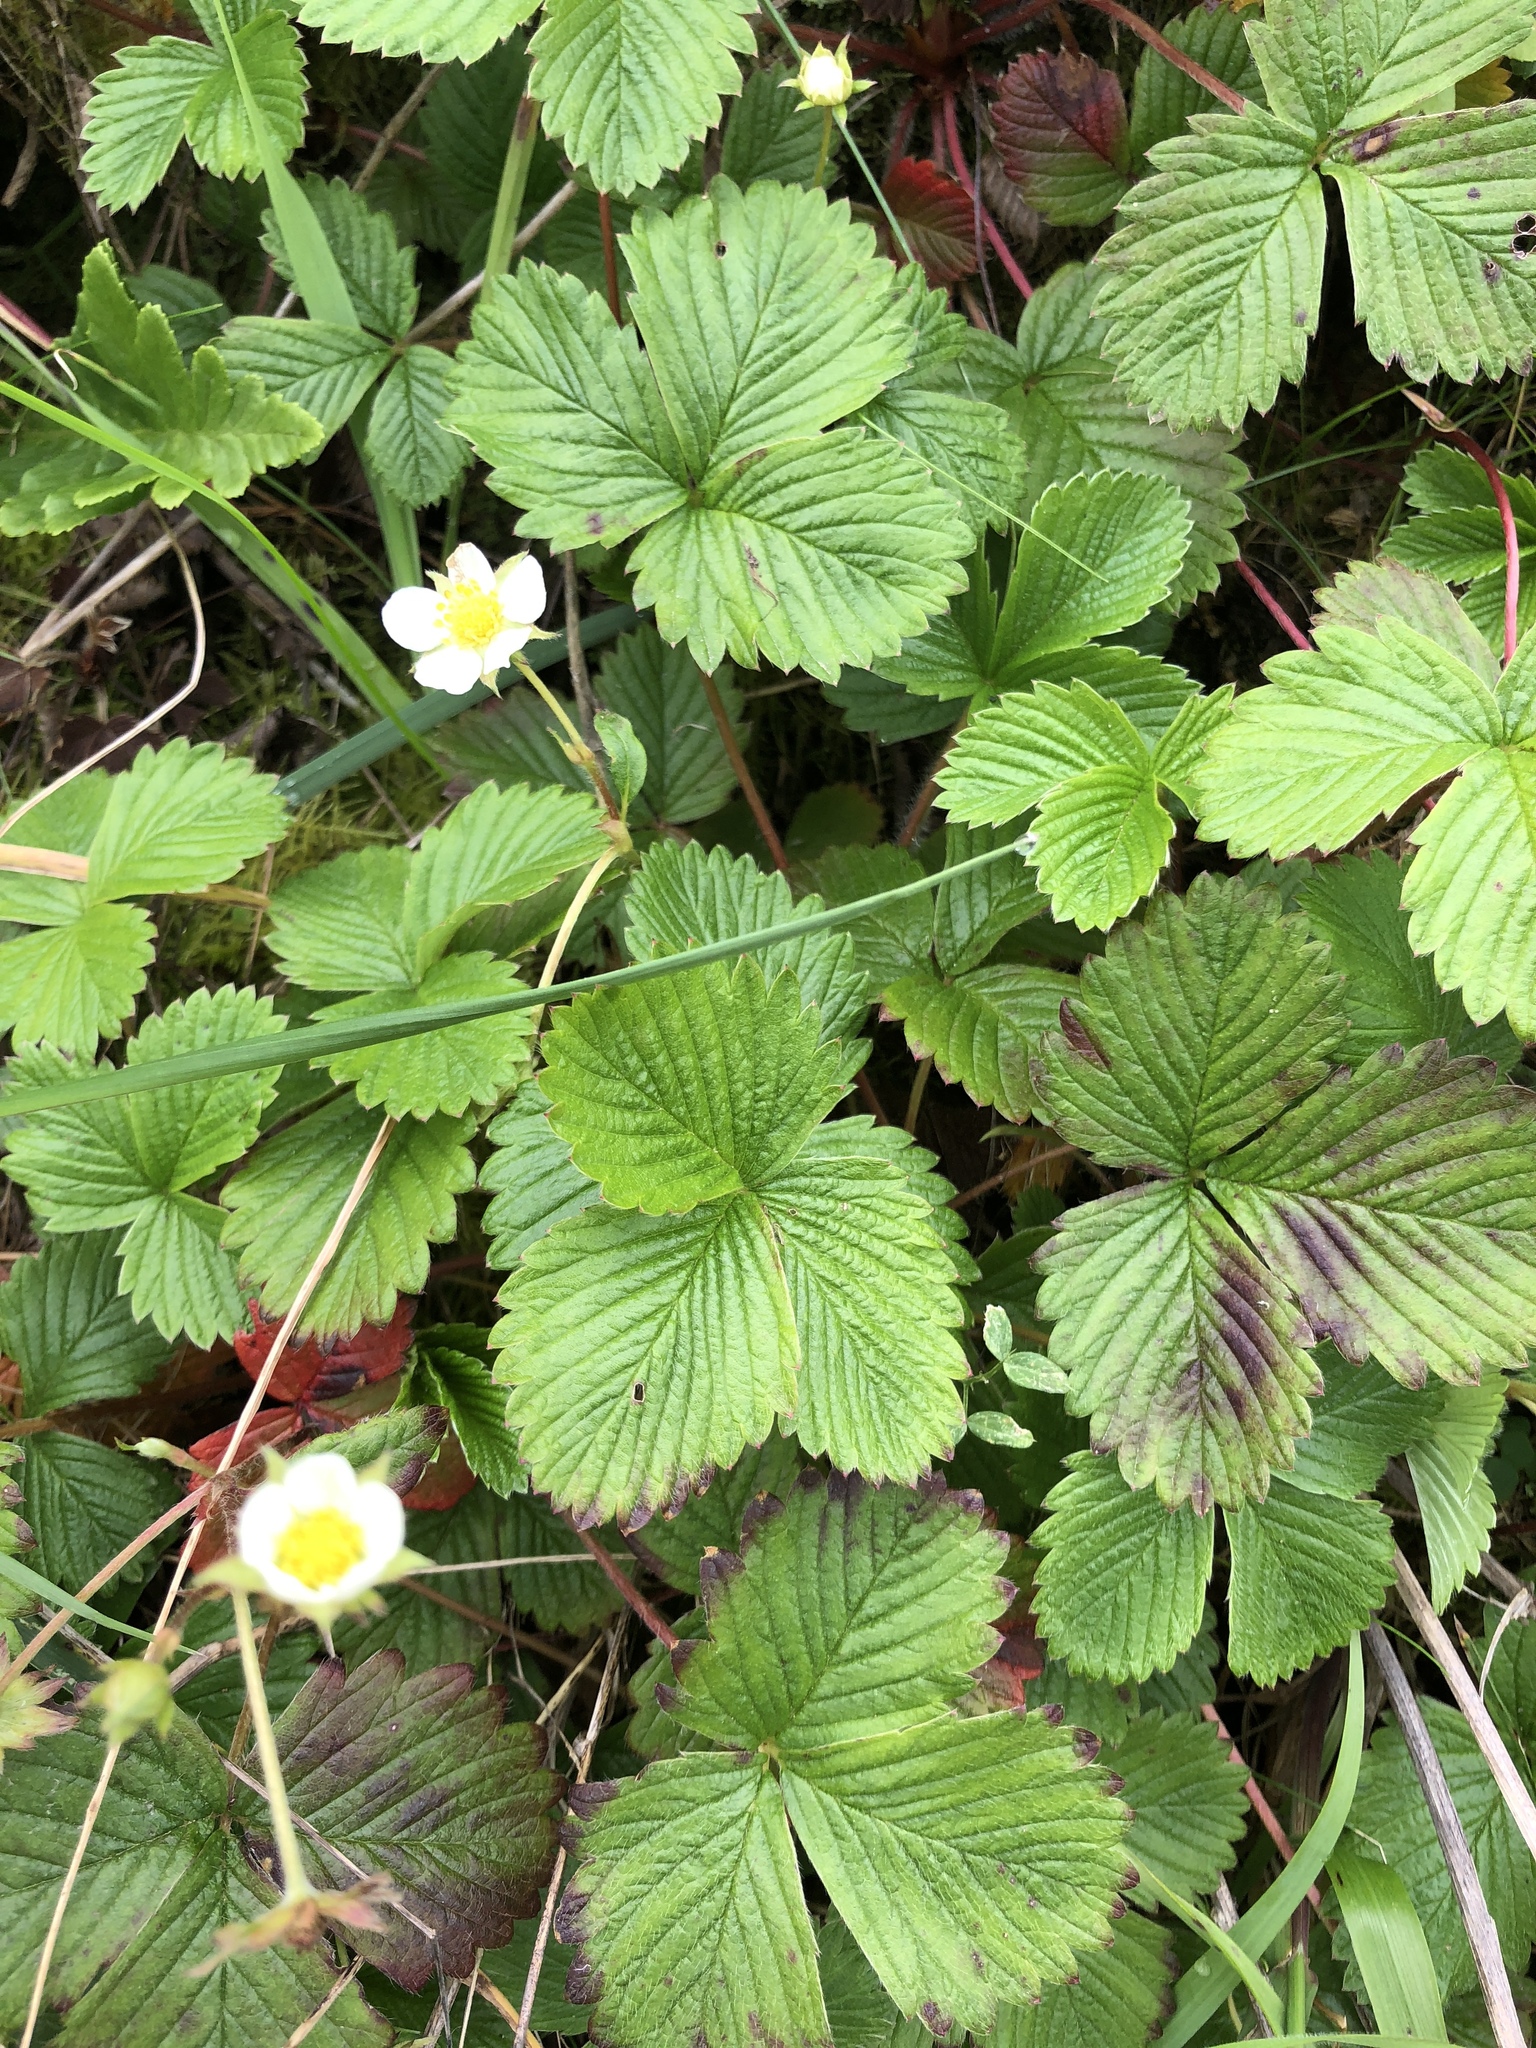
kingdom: Plantae
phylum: Tracheophyta
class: Magnoliopsida
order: Rosales
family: Rosaceae
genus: Fragaria
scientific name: Fragaria vesca
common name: Wild strawberry
